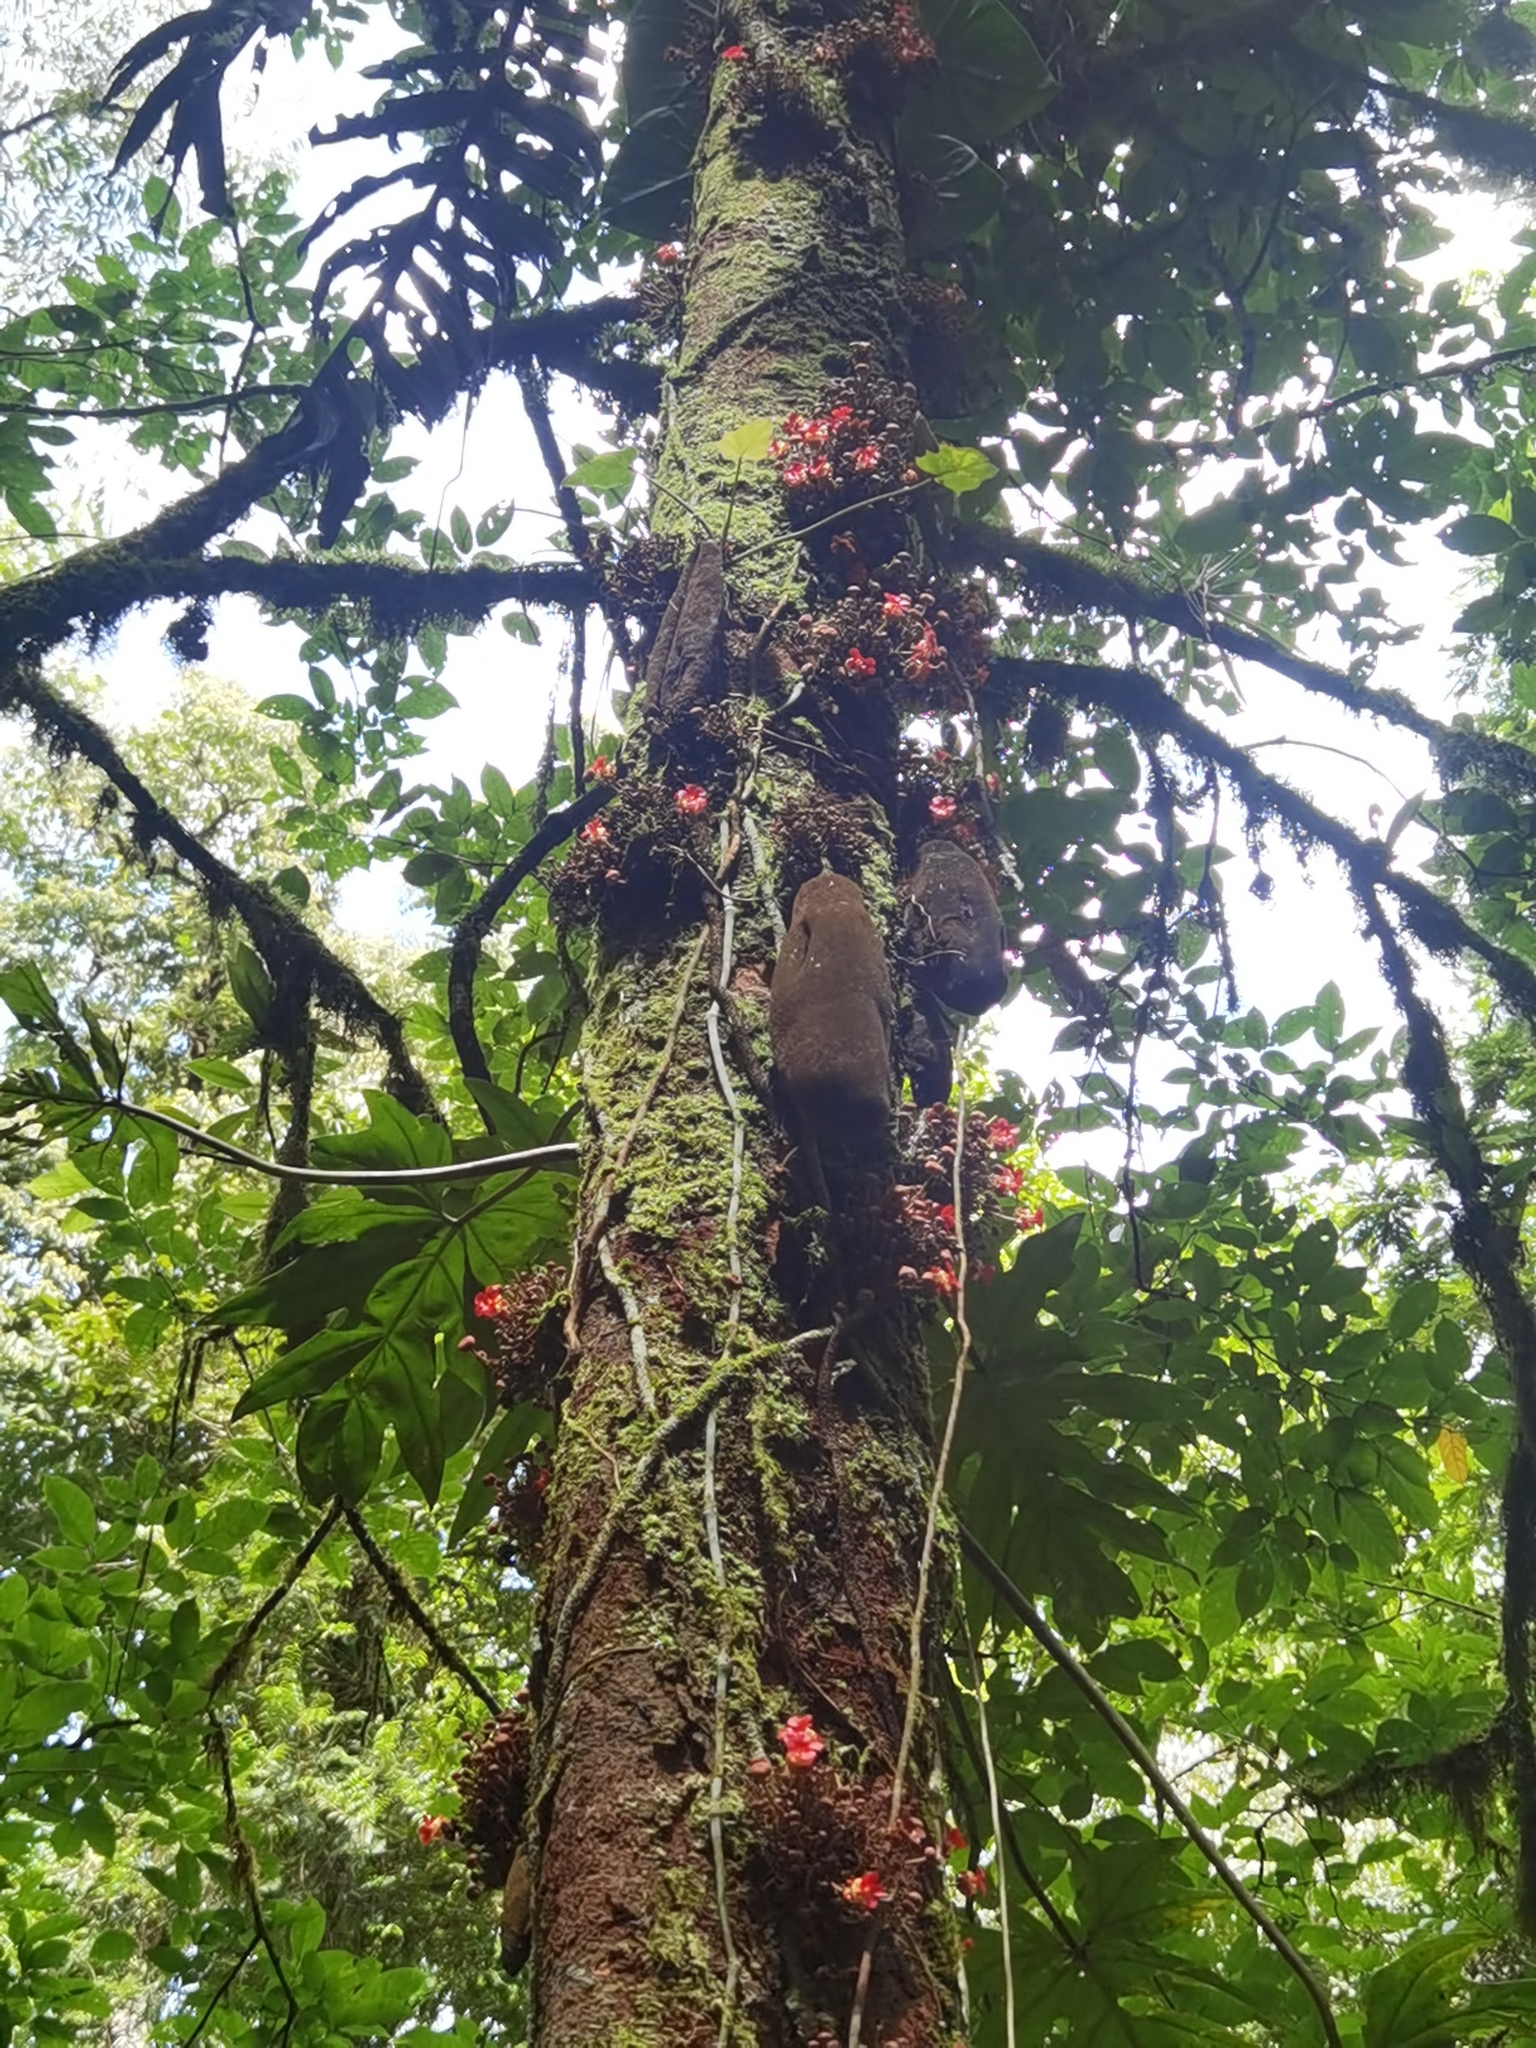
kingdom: Plantae
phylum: Tracheophyta
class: Magnoliopsida
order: Malvales
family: Malvaceae
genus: Theobroma
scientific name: Theobroma simiarum
